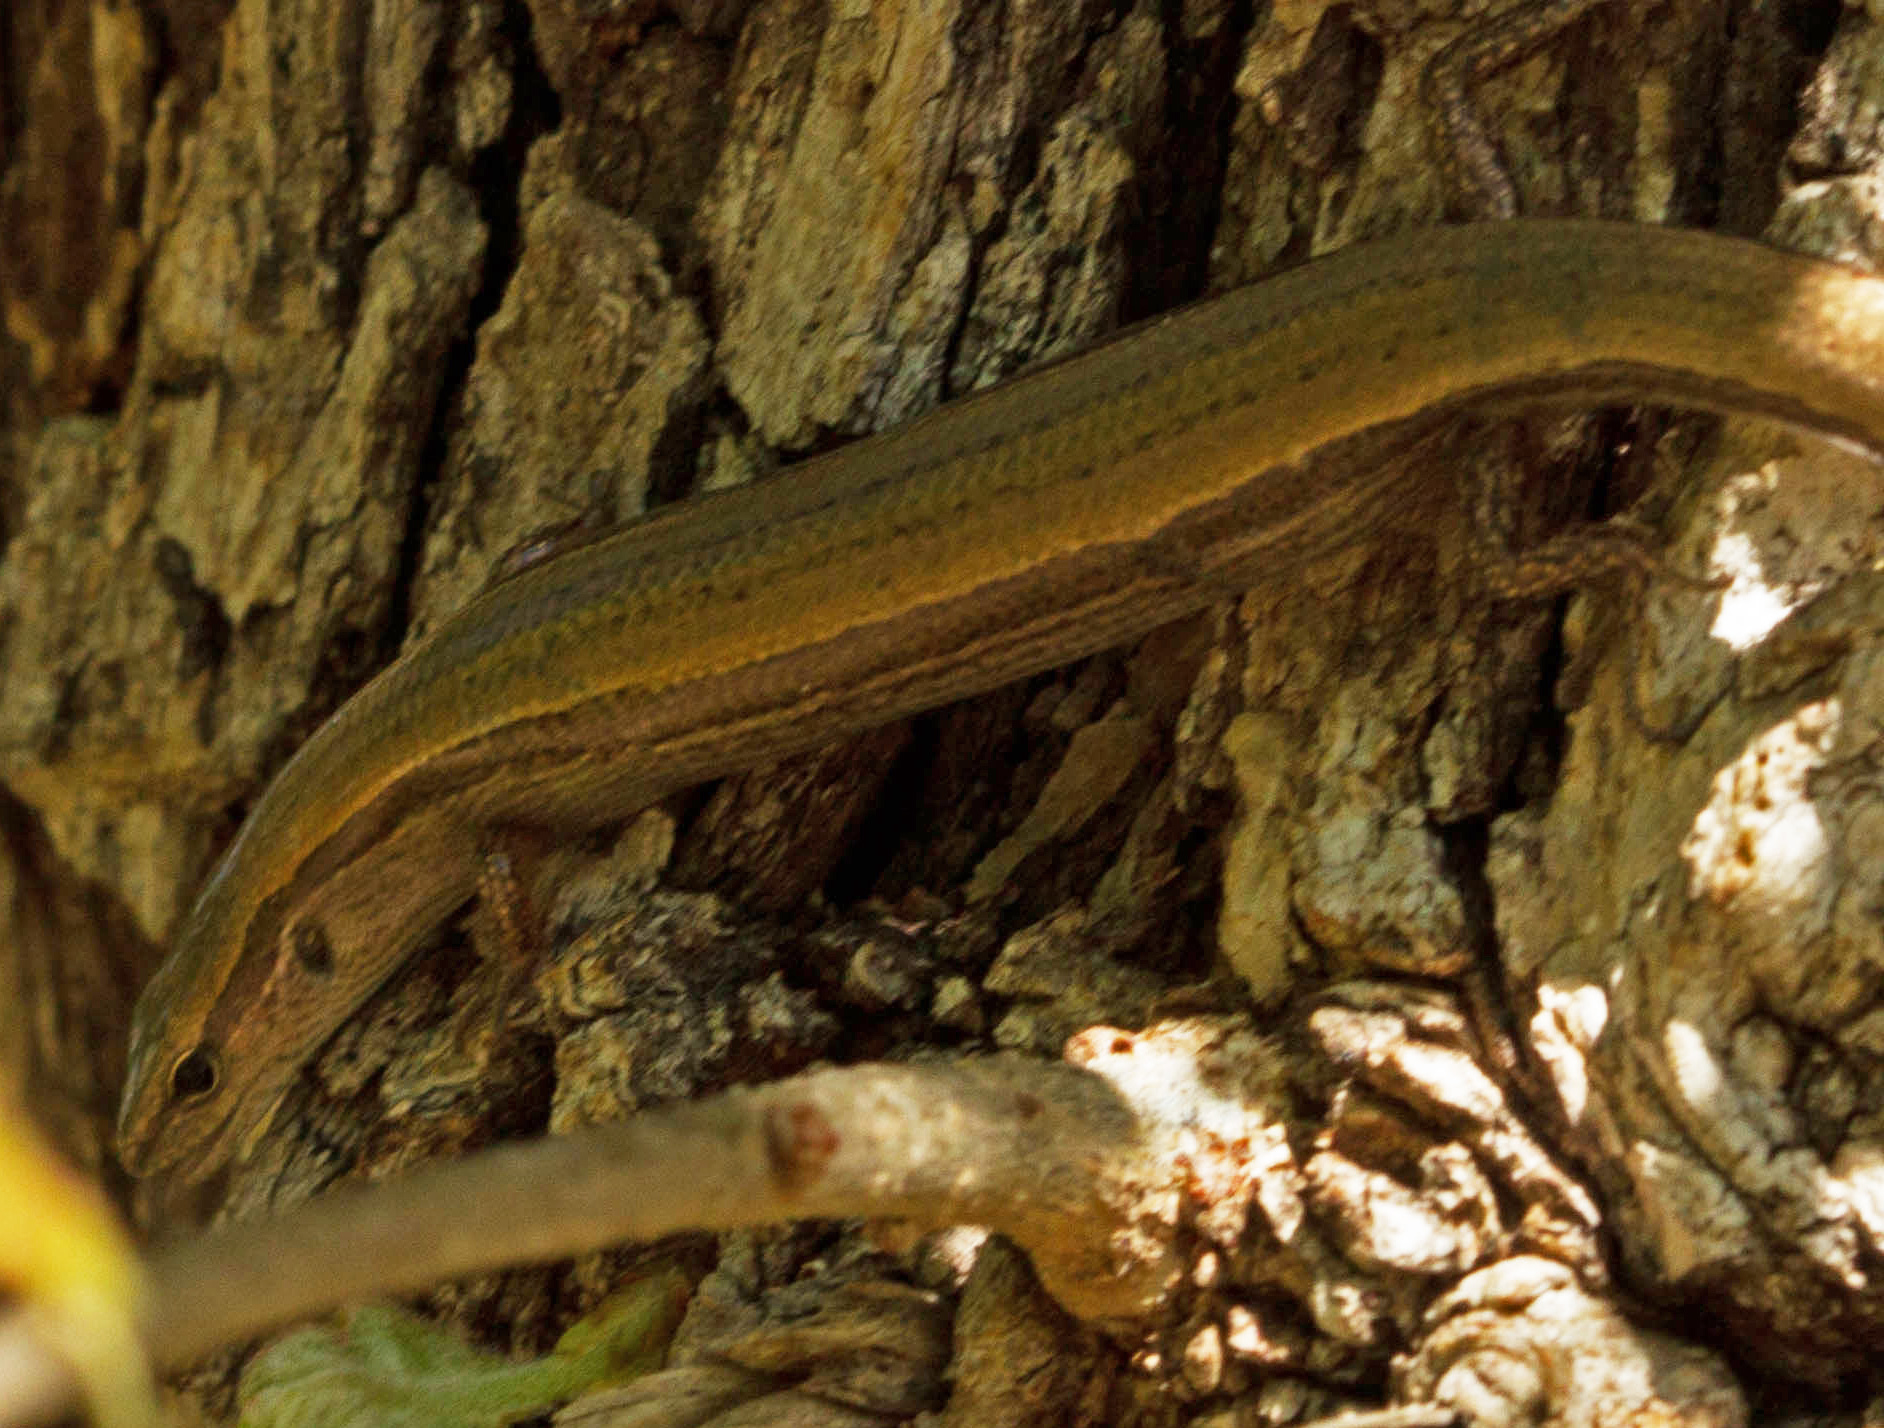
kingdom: Animalia
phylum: Chordata
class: Squamata
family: Scincidae
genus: Scincella
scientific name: Scincella lateralis
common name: Ground skink
